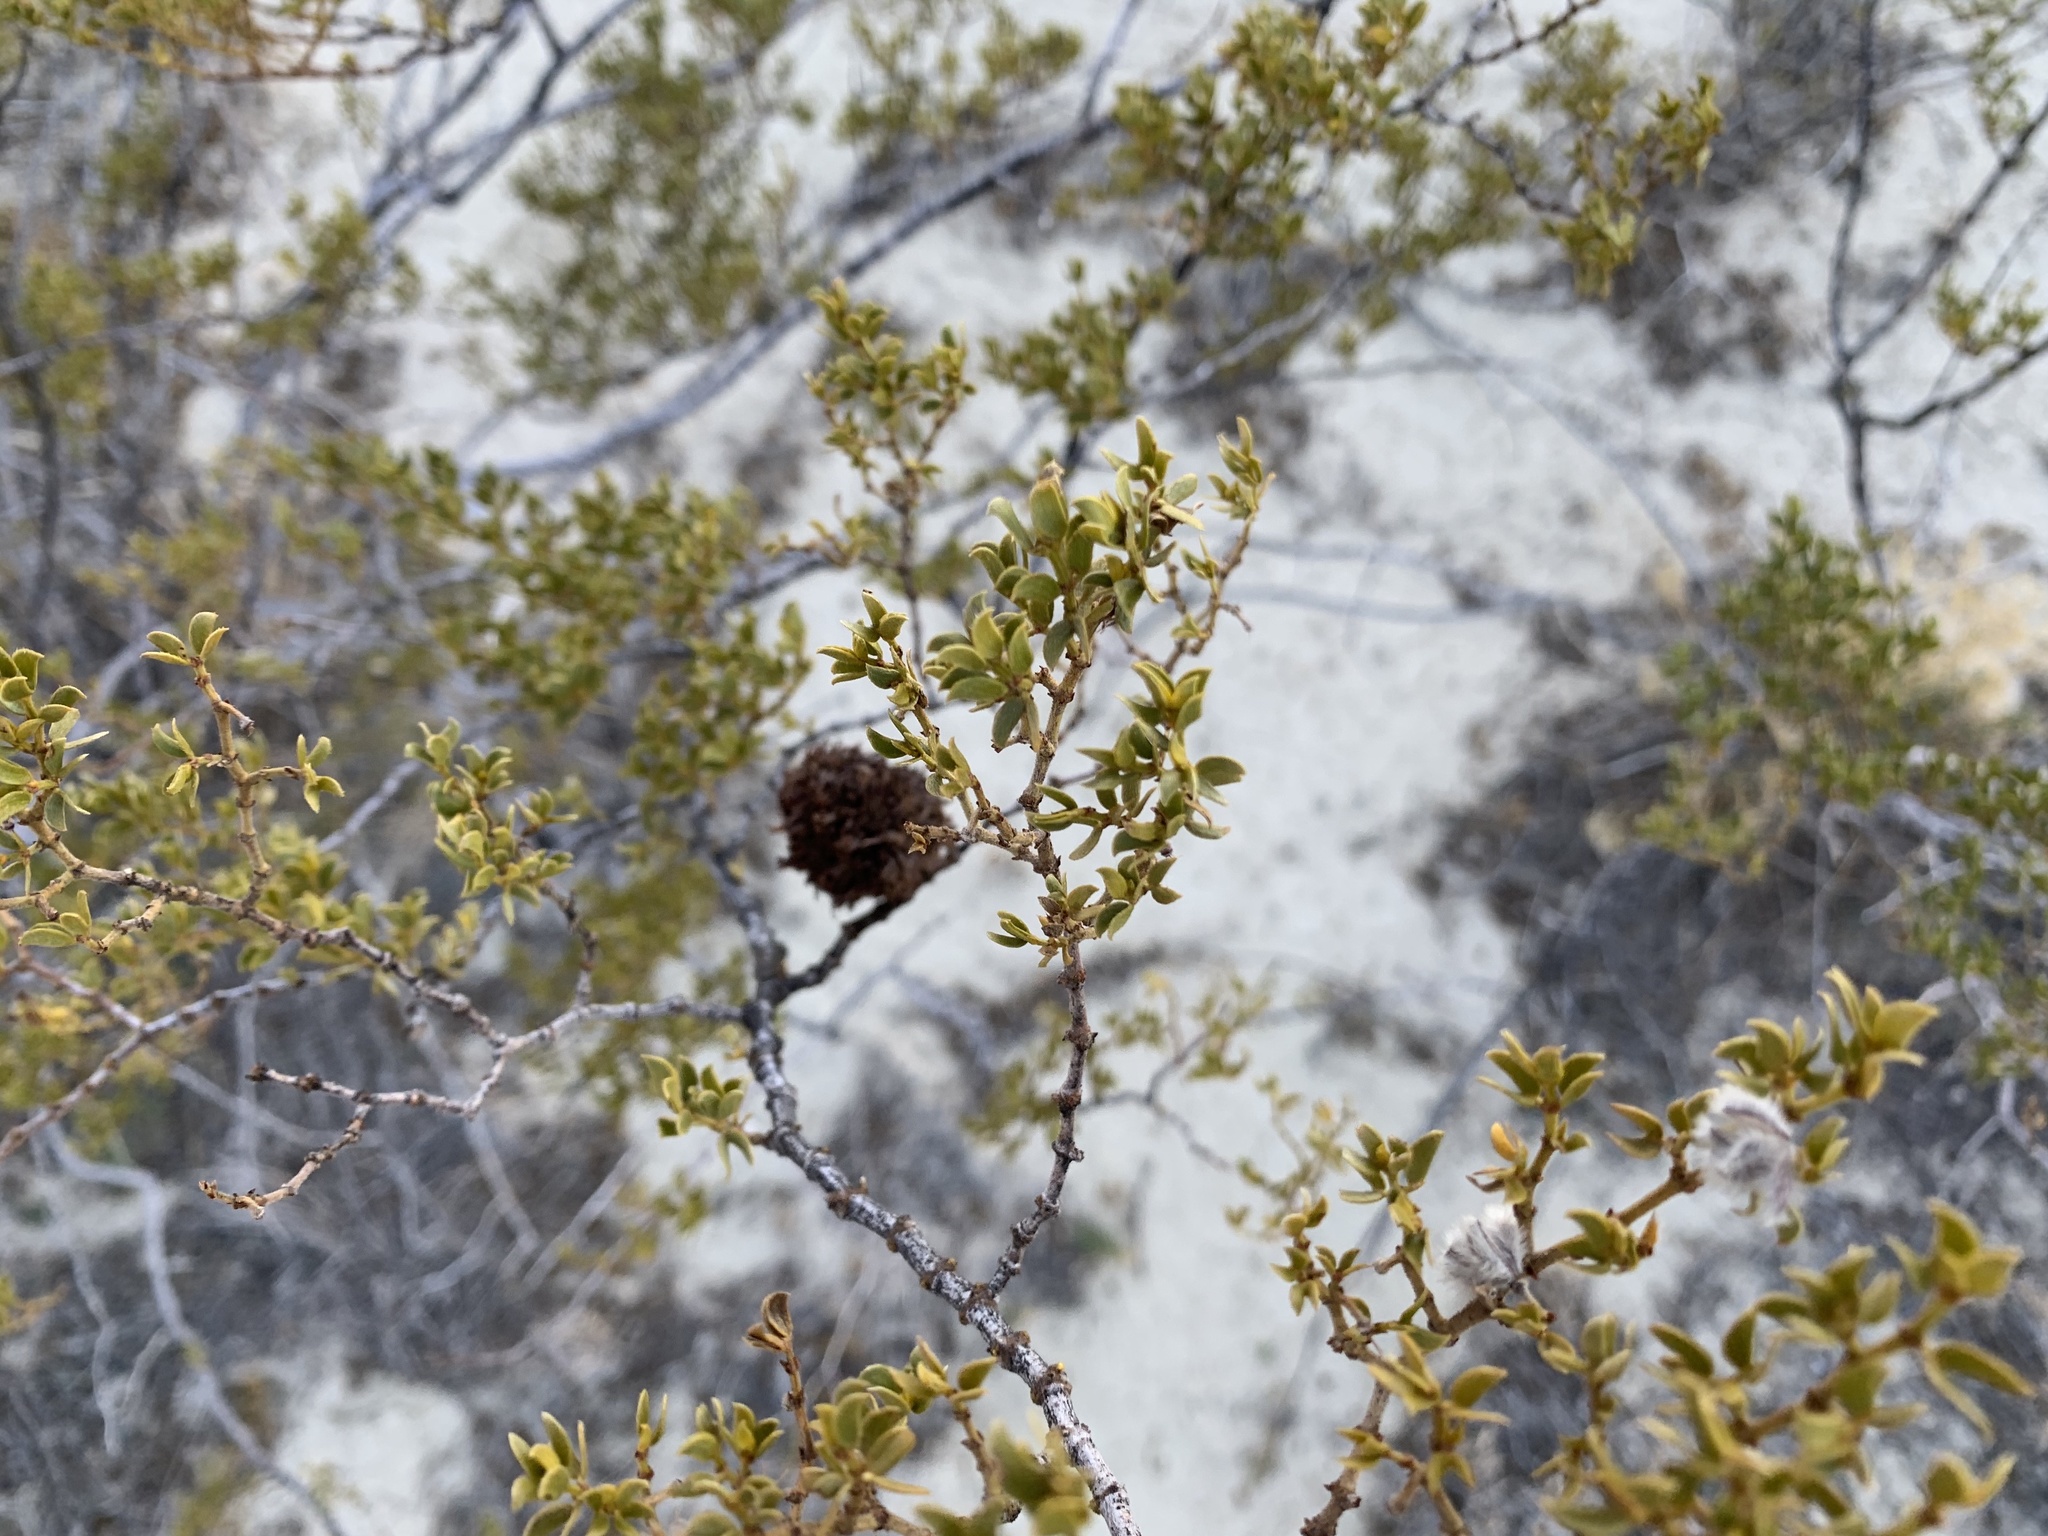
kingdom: Animalia
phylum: Arthropoda
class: Insecta
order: Diptera
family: Cecidomyiidae
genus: Asphondylia
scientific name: Asphondylia auripila
